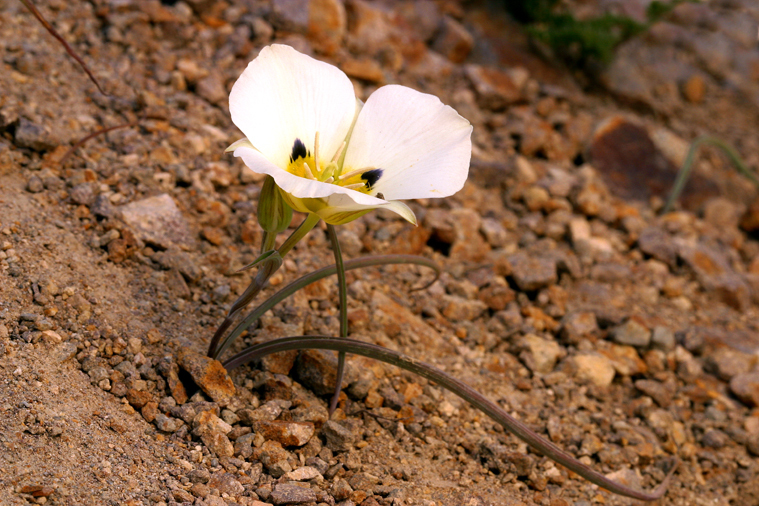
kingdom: Plantae
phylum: Tracheophyta
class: Liliopsida
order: Liliales
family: Liliaceae
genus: Calochortus
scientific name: Calochortus leichtlinii
